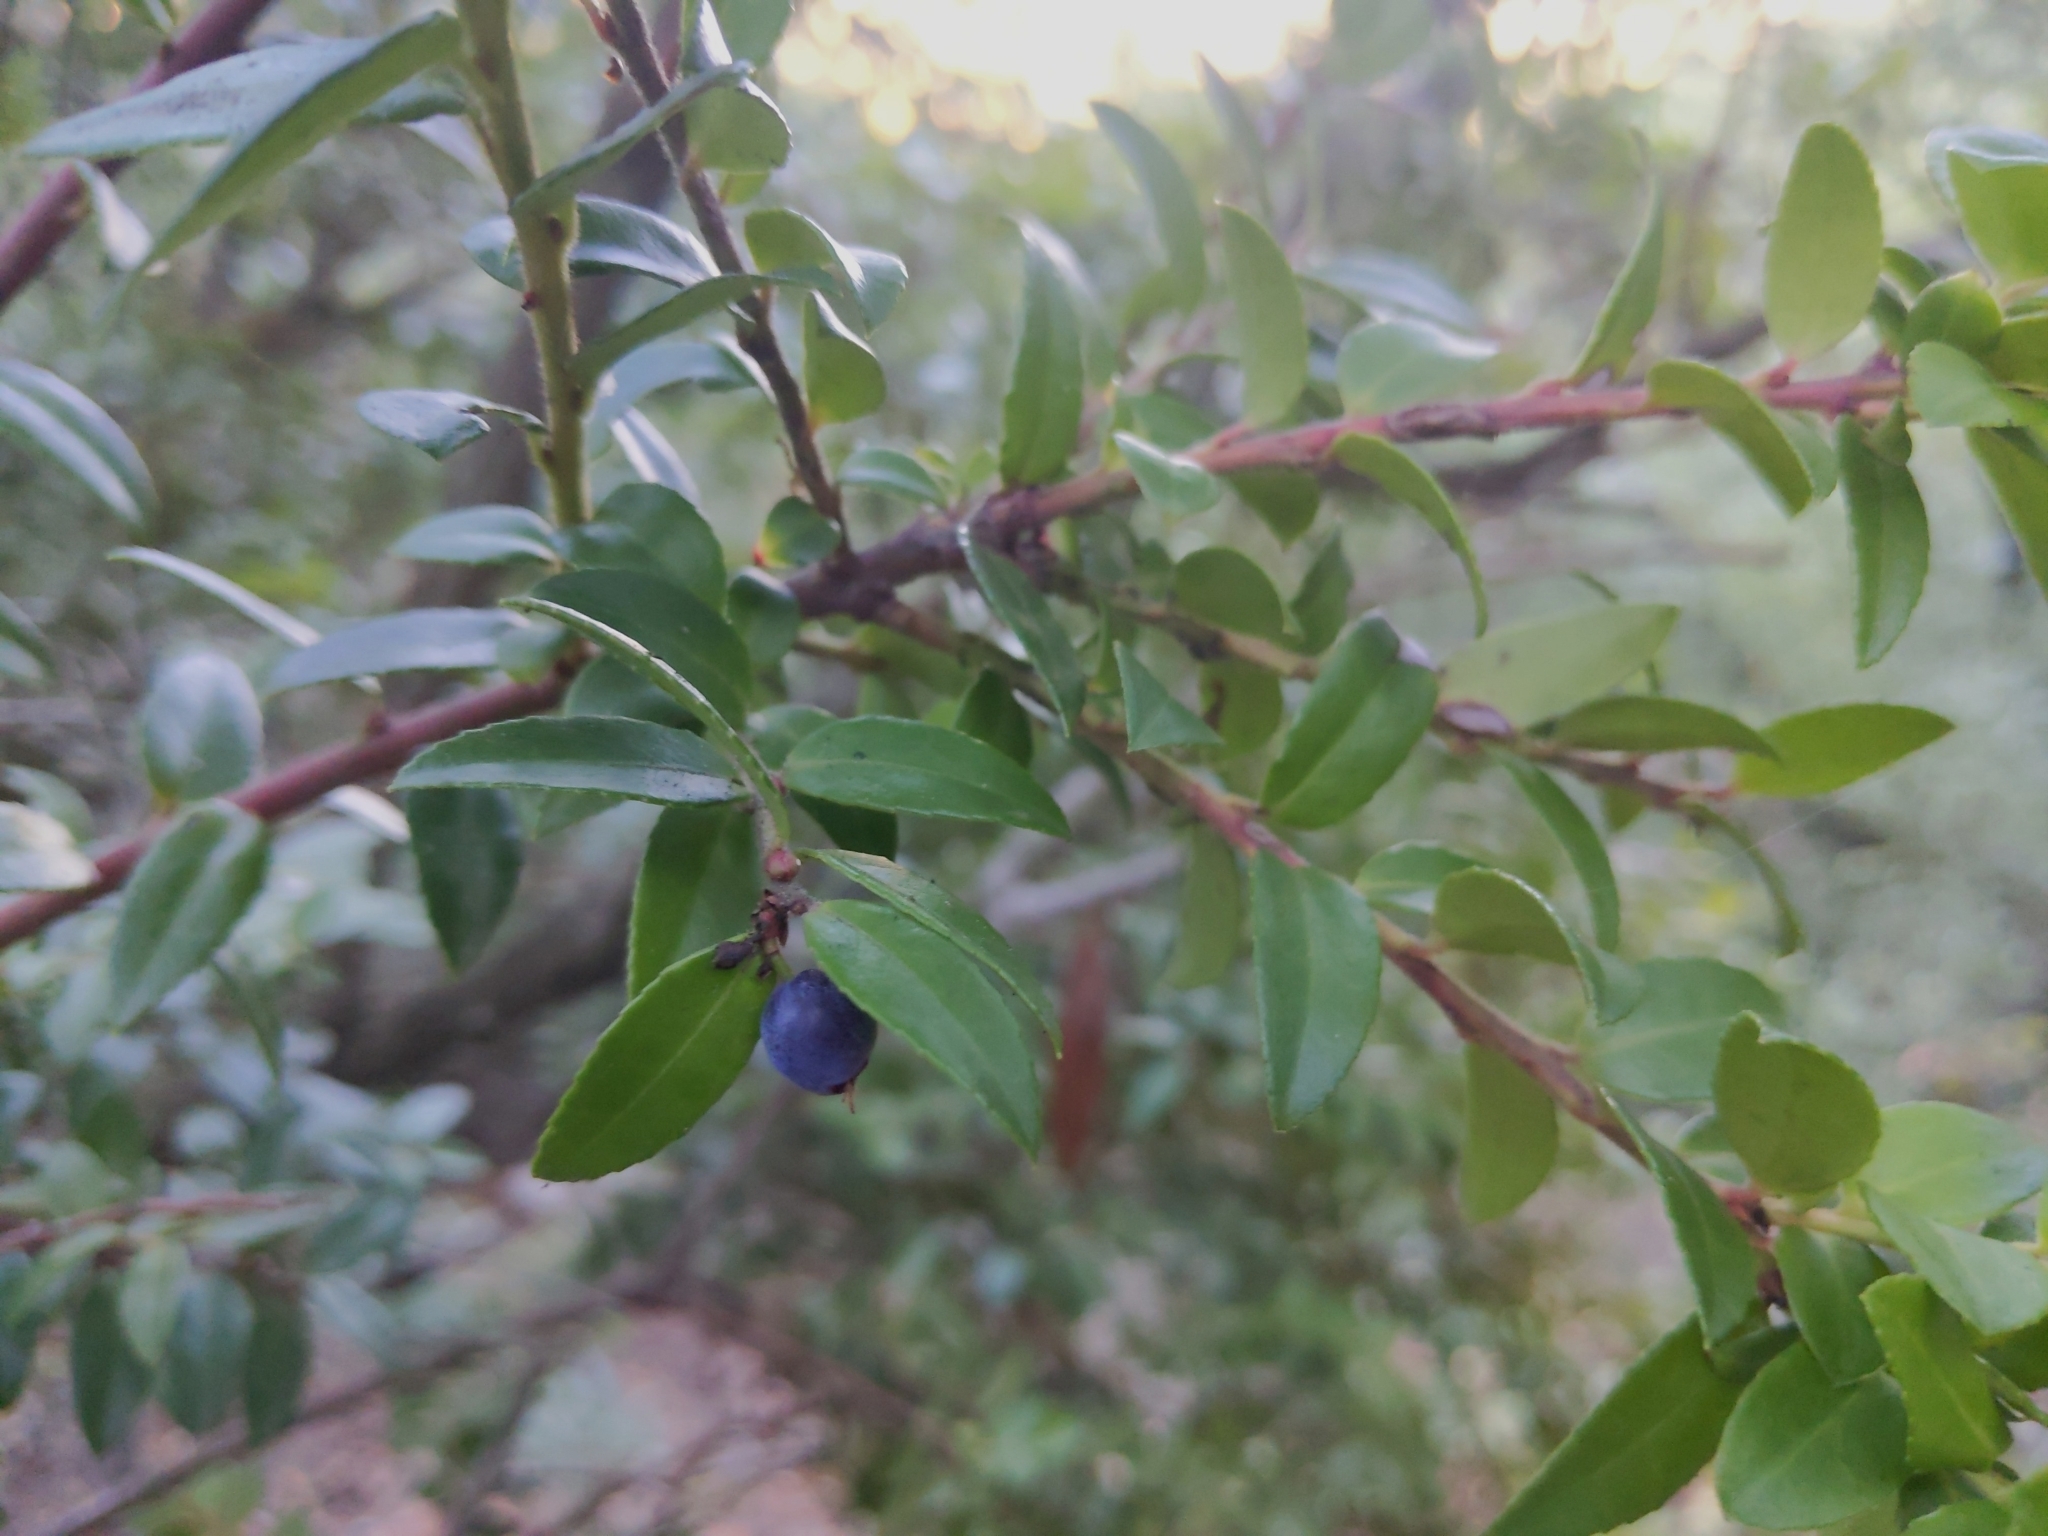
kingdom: Plantae
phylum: Tracheophyta
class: Magnoliopsida
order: Ericales
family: Ericaceae
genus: Vaccinium
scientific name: Vaccinium ovatum
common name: California-huckleberry
